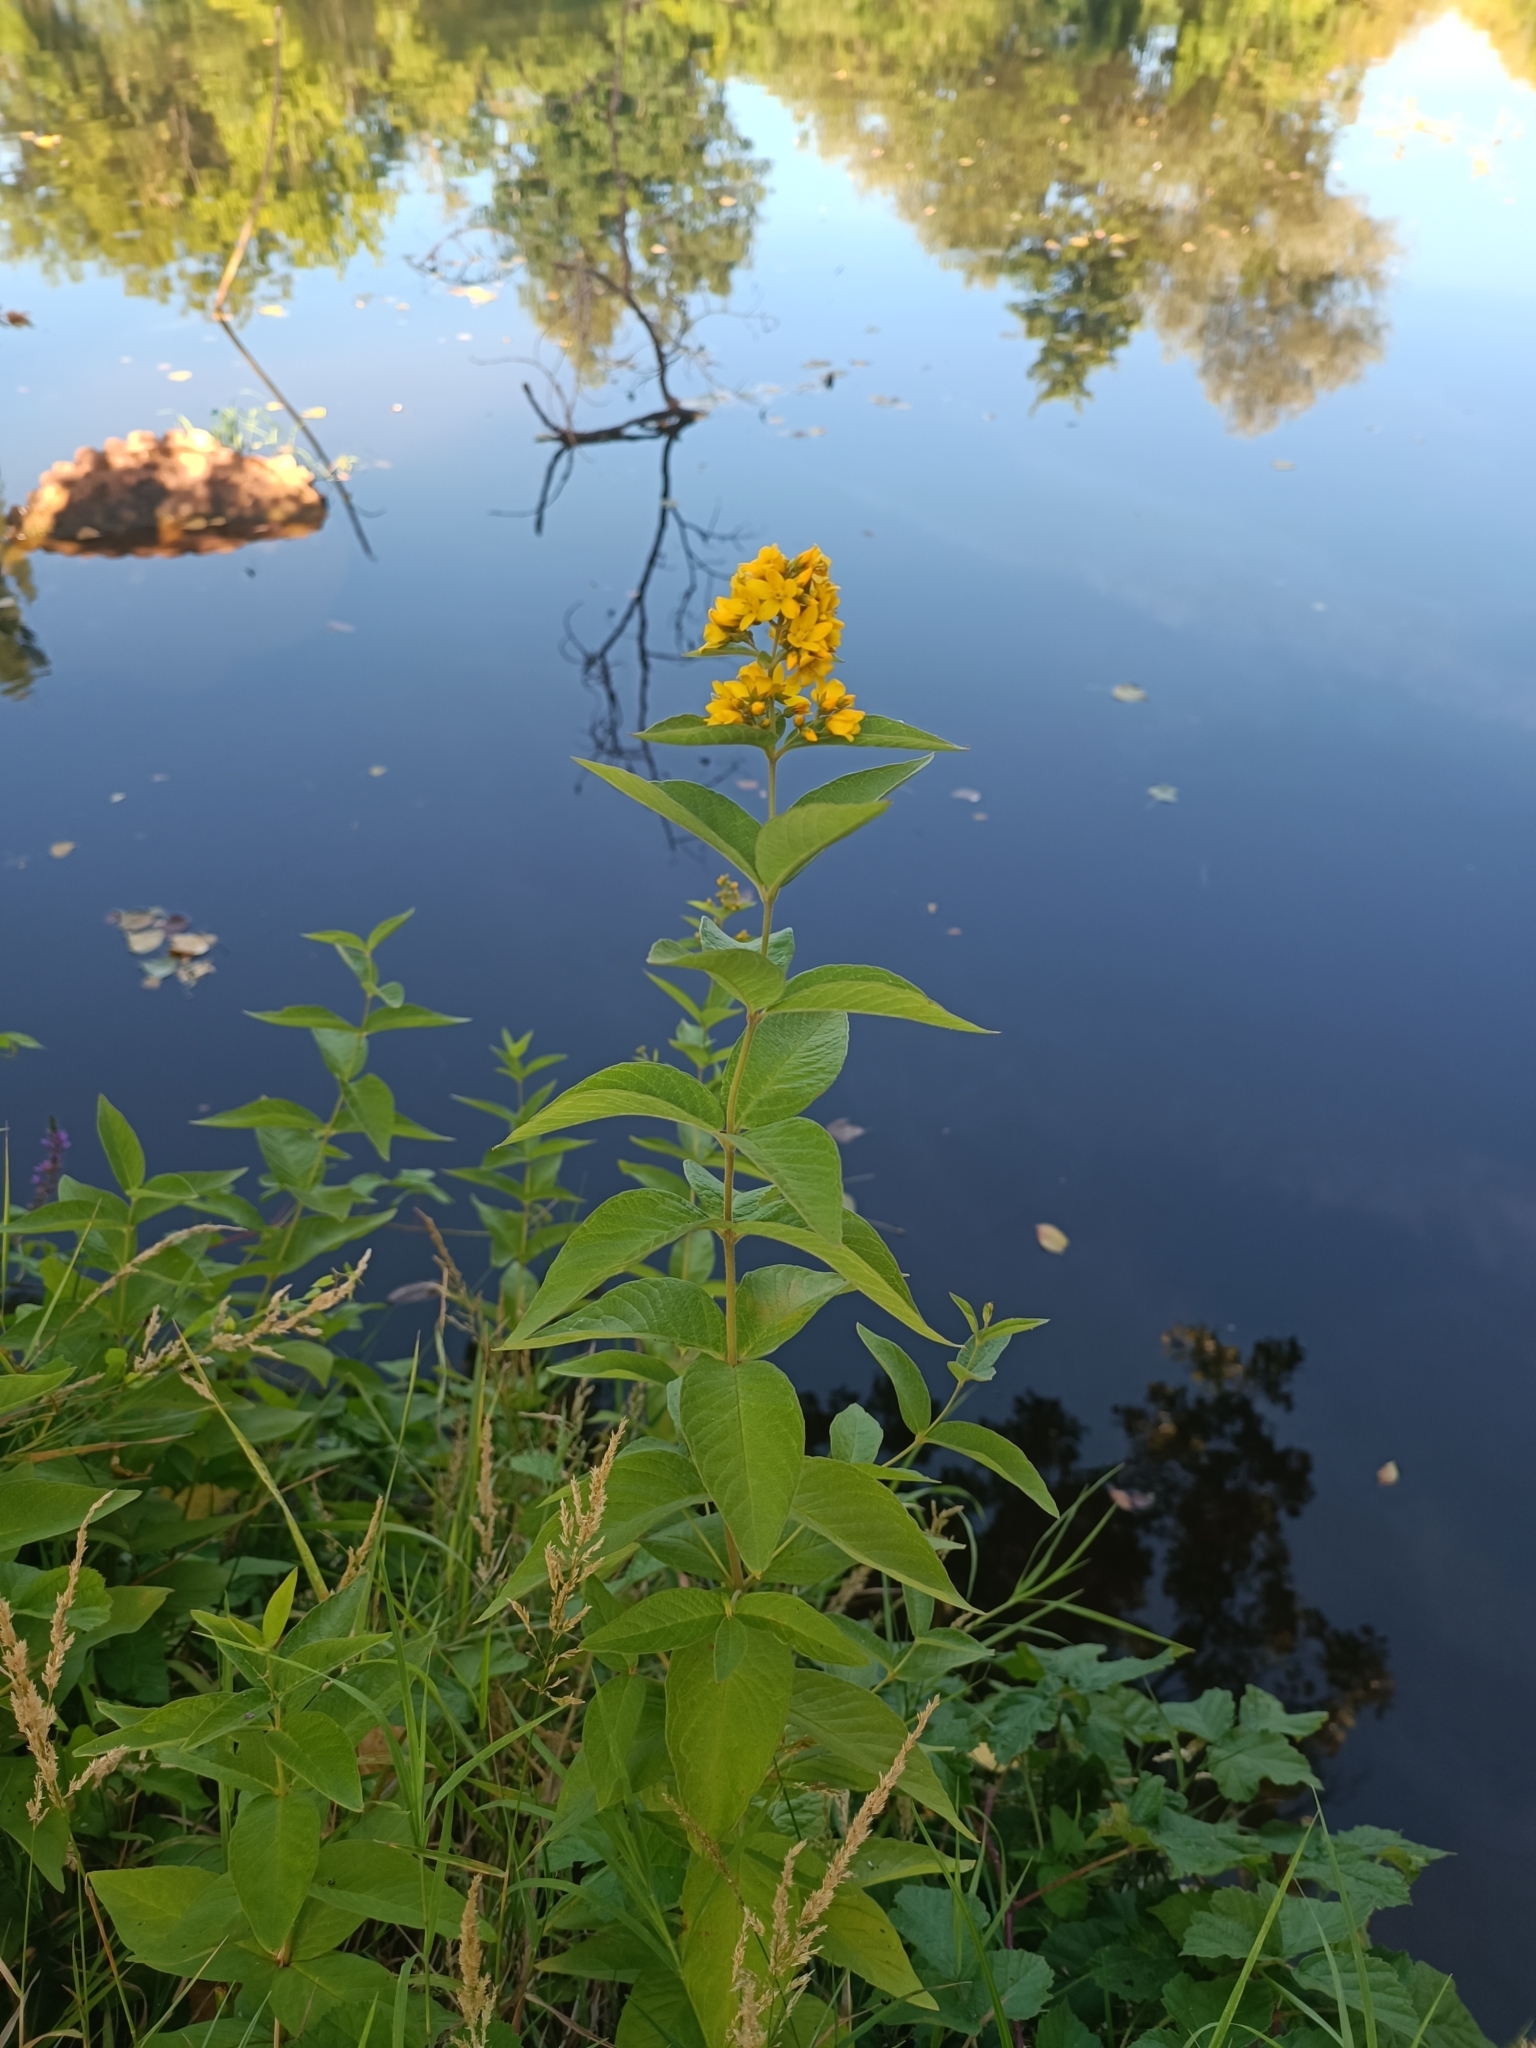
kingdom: Plantae
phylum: Tracheophyta
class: Magnoliopsida
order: Ericales
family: Primulaceae
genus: Lysimachia
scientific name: Lysimachia vulgaris
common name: Yellow loosestrife
